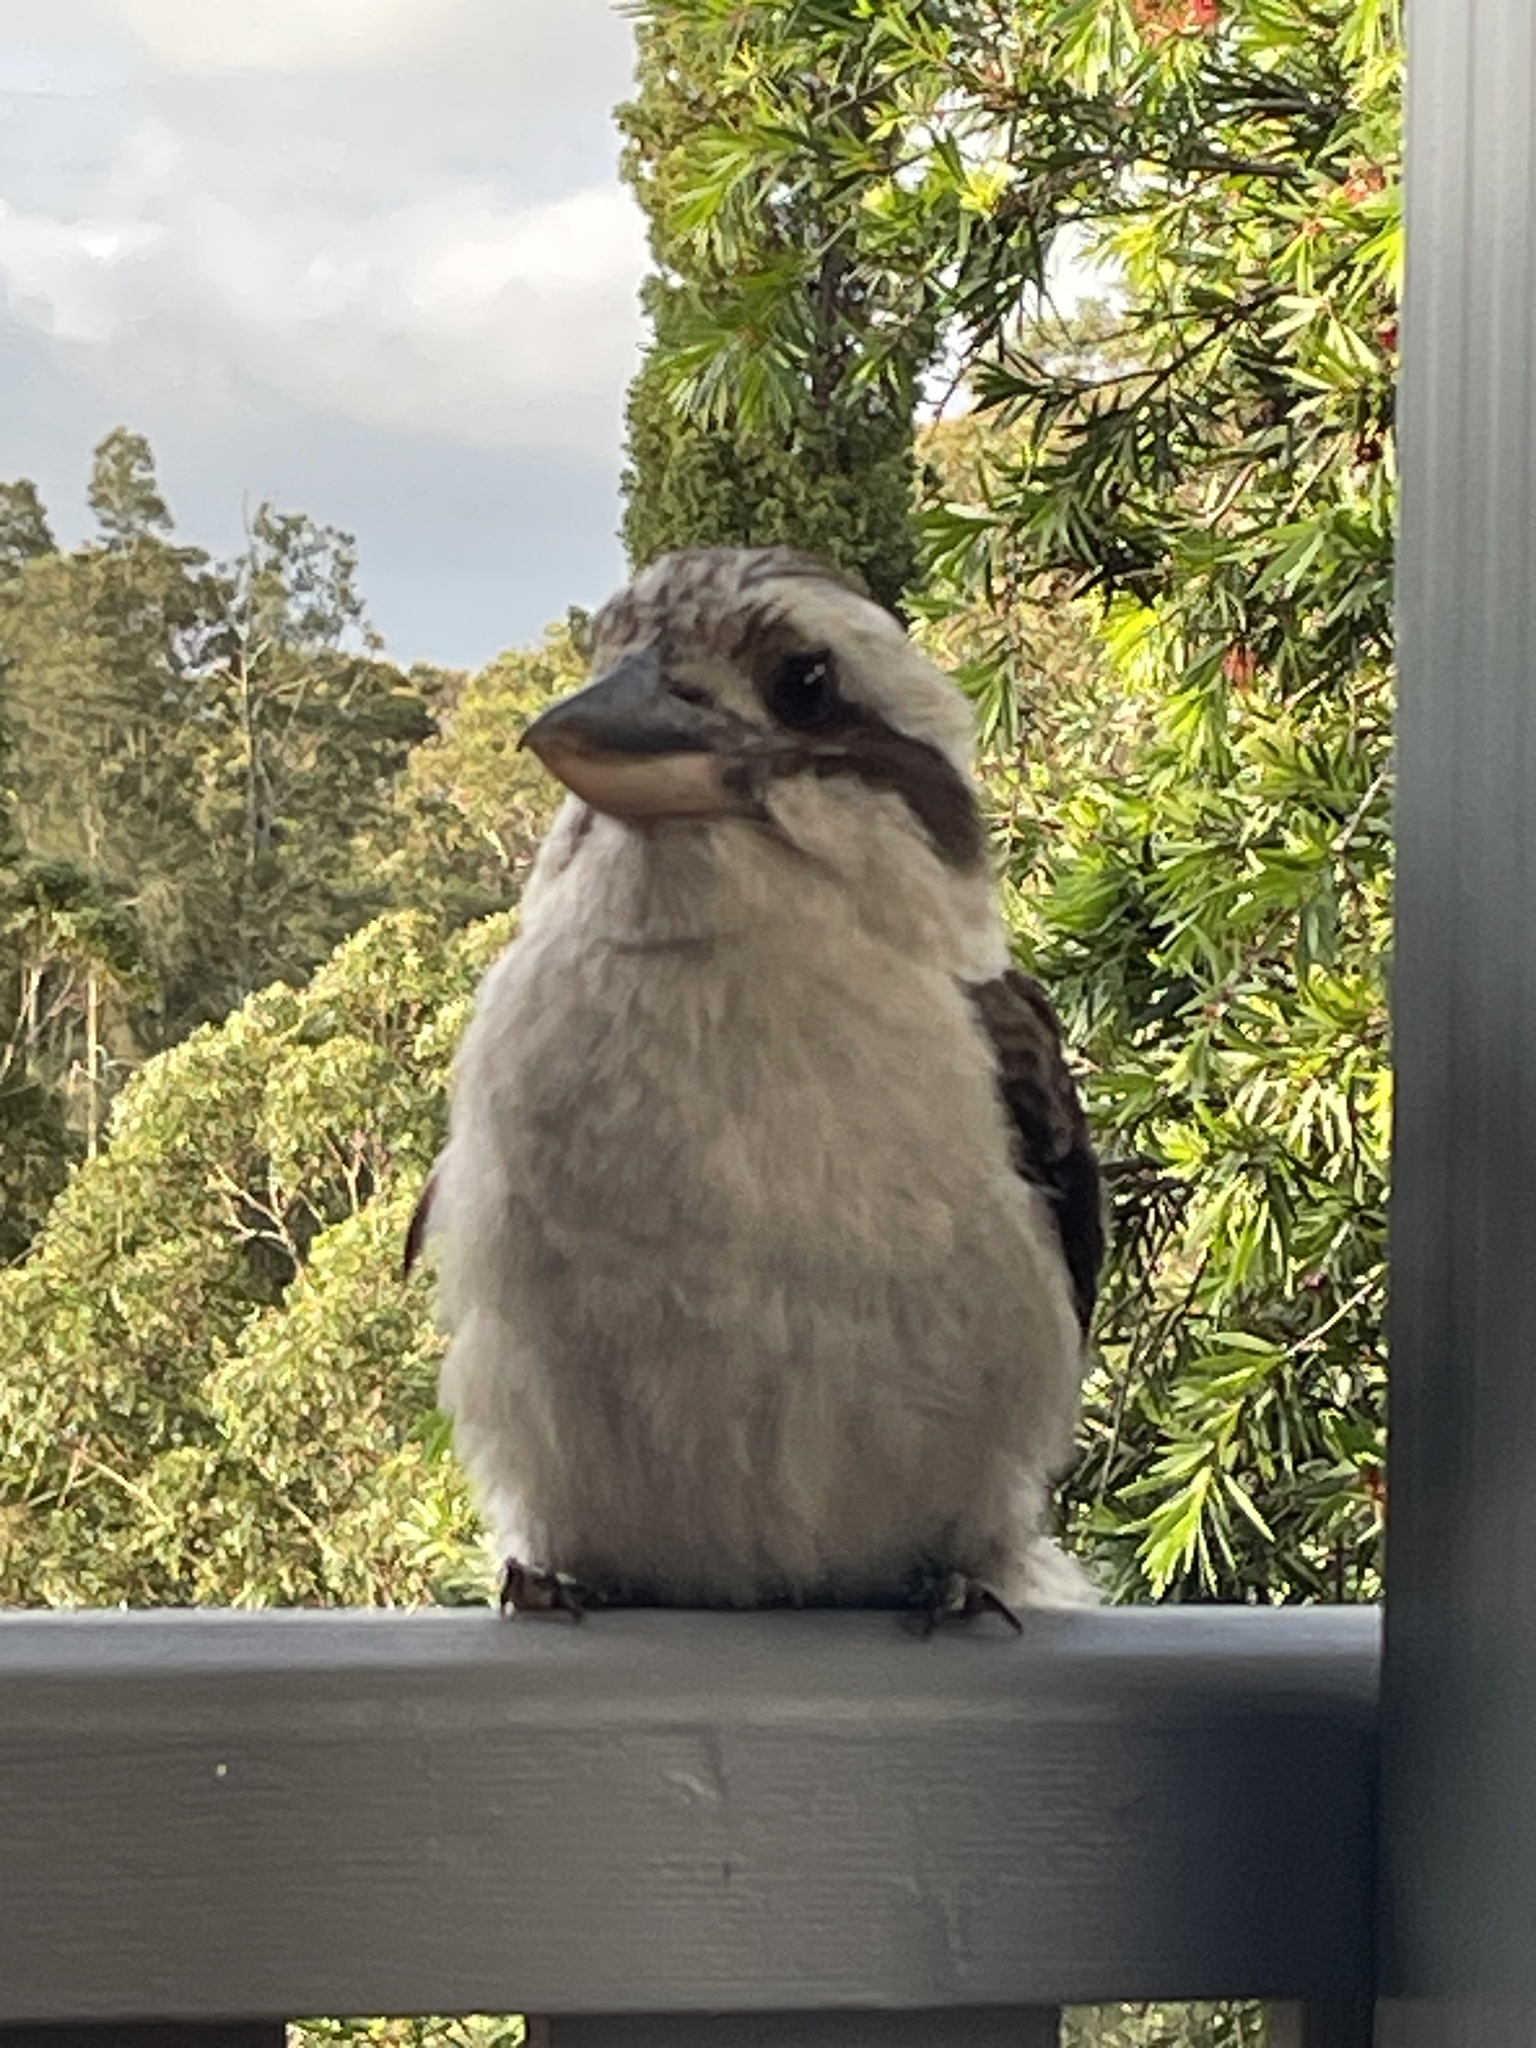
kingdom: Animalia
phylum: Chordata
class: Aves
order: Coraciiformes
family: Alcedinidae
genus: Dacelo
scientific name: Dacelo novaeguineae
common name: Laughing kookaburra
